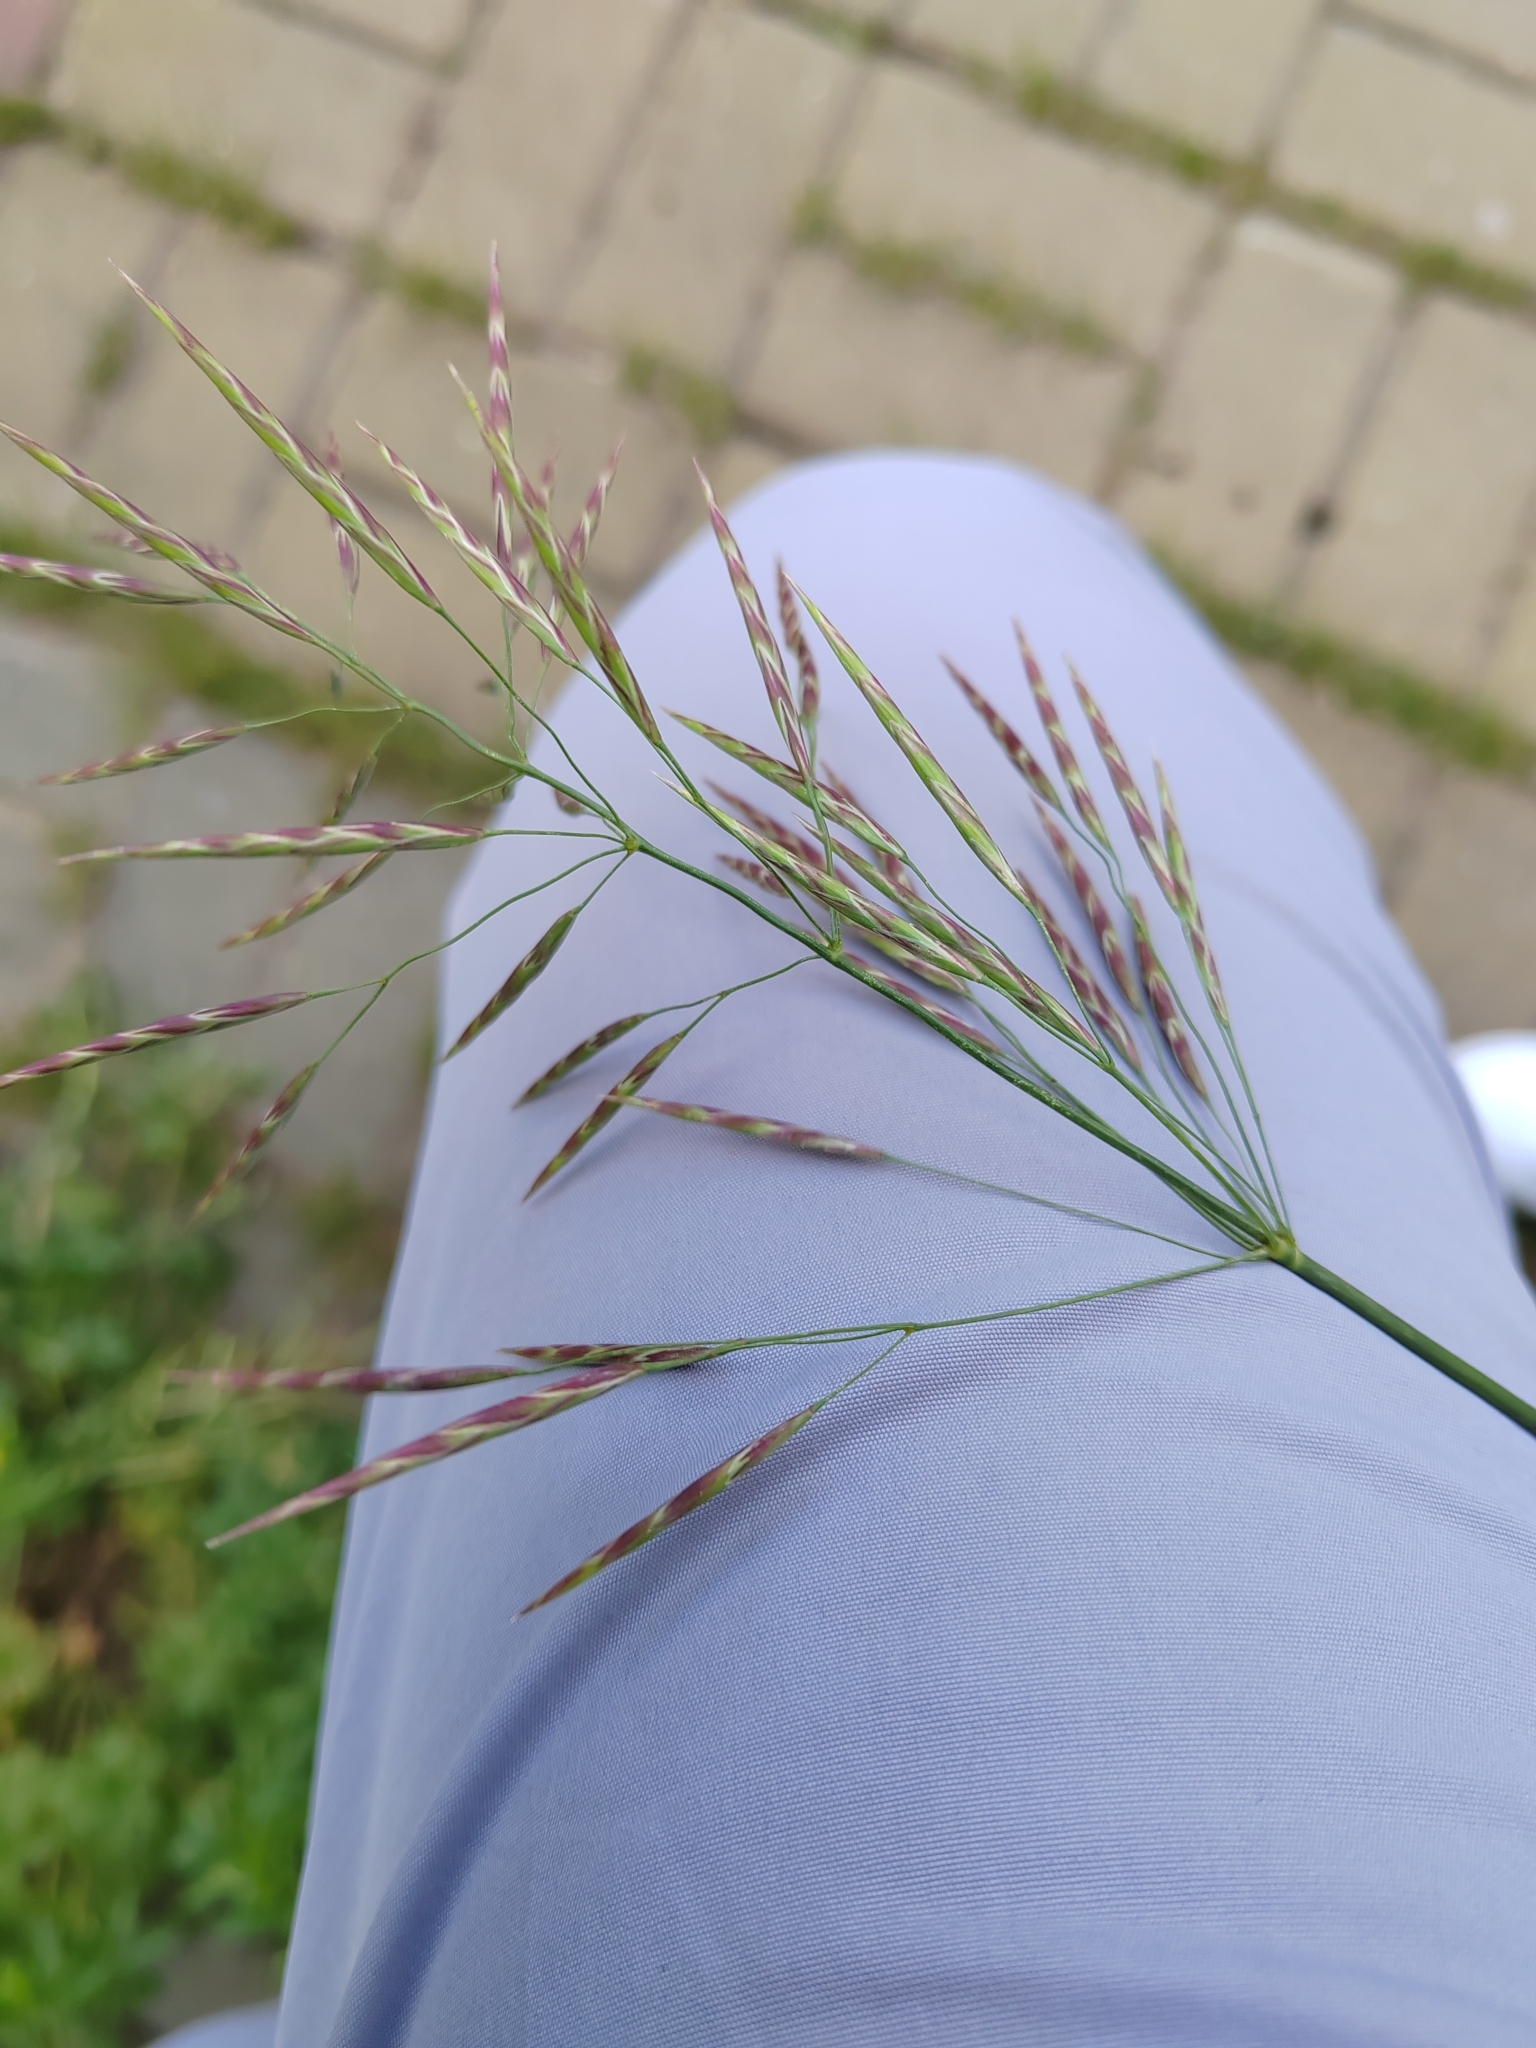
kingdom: Plantae
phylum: Tracheophyta
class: Liliopsida
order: Poales
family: Poaceae
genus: Bromus
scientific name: Bromus inermis
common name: Smooth brome
